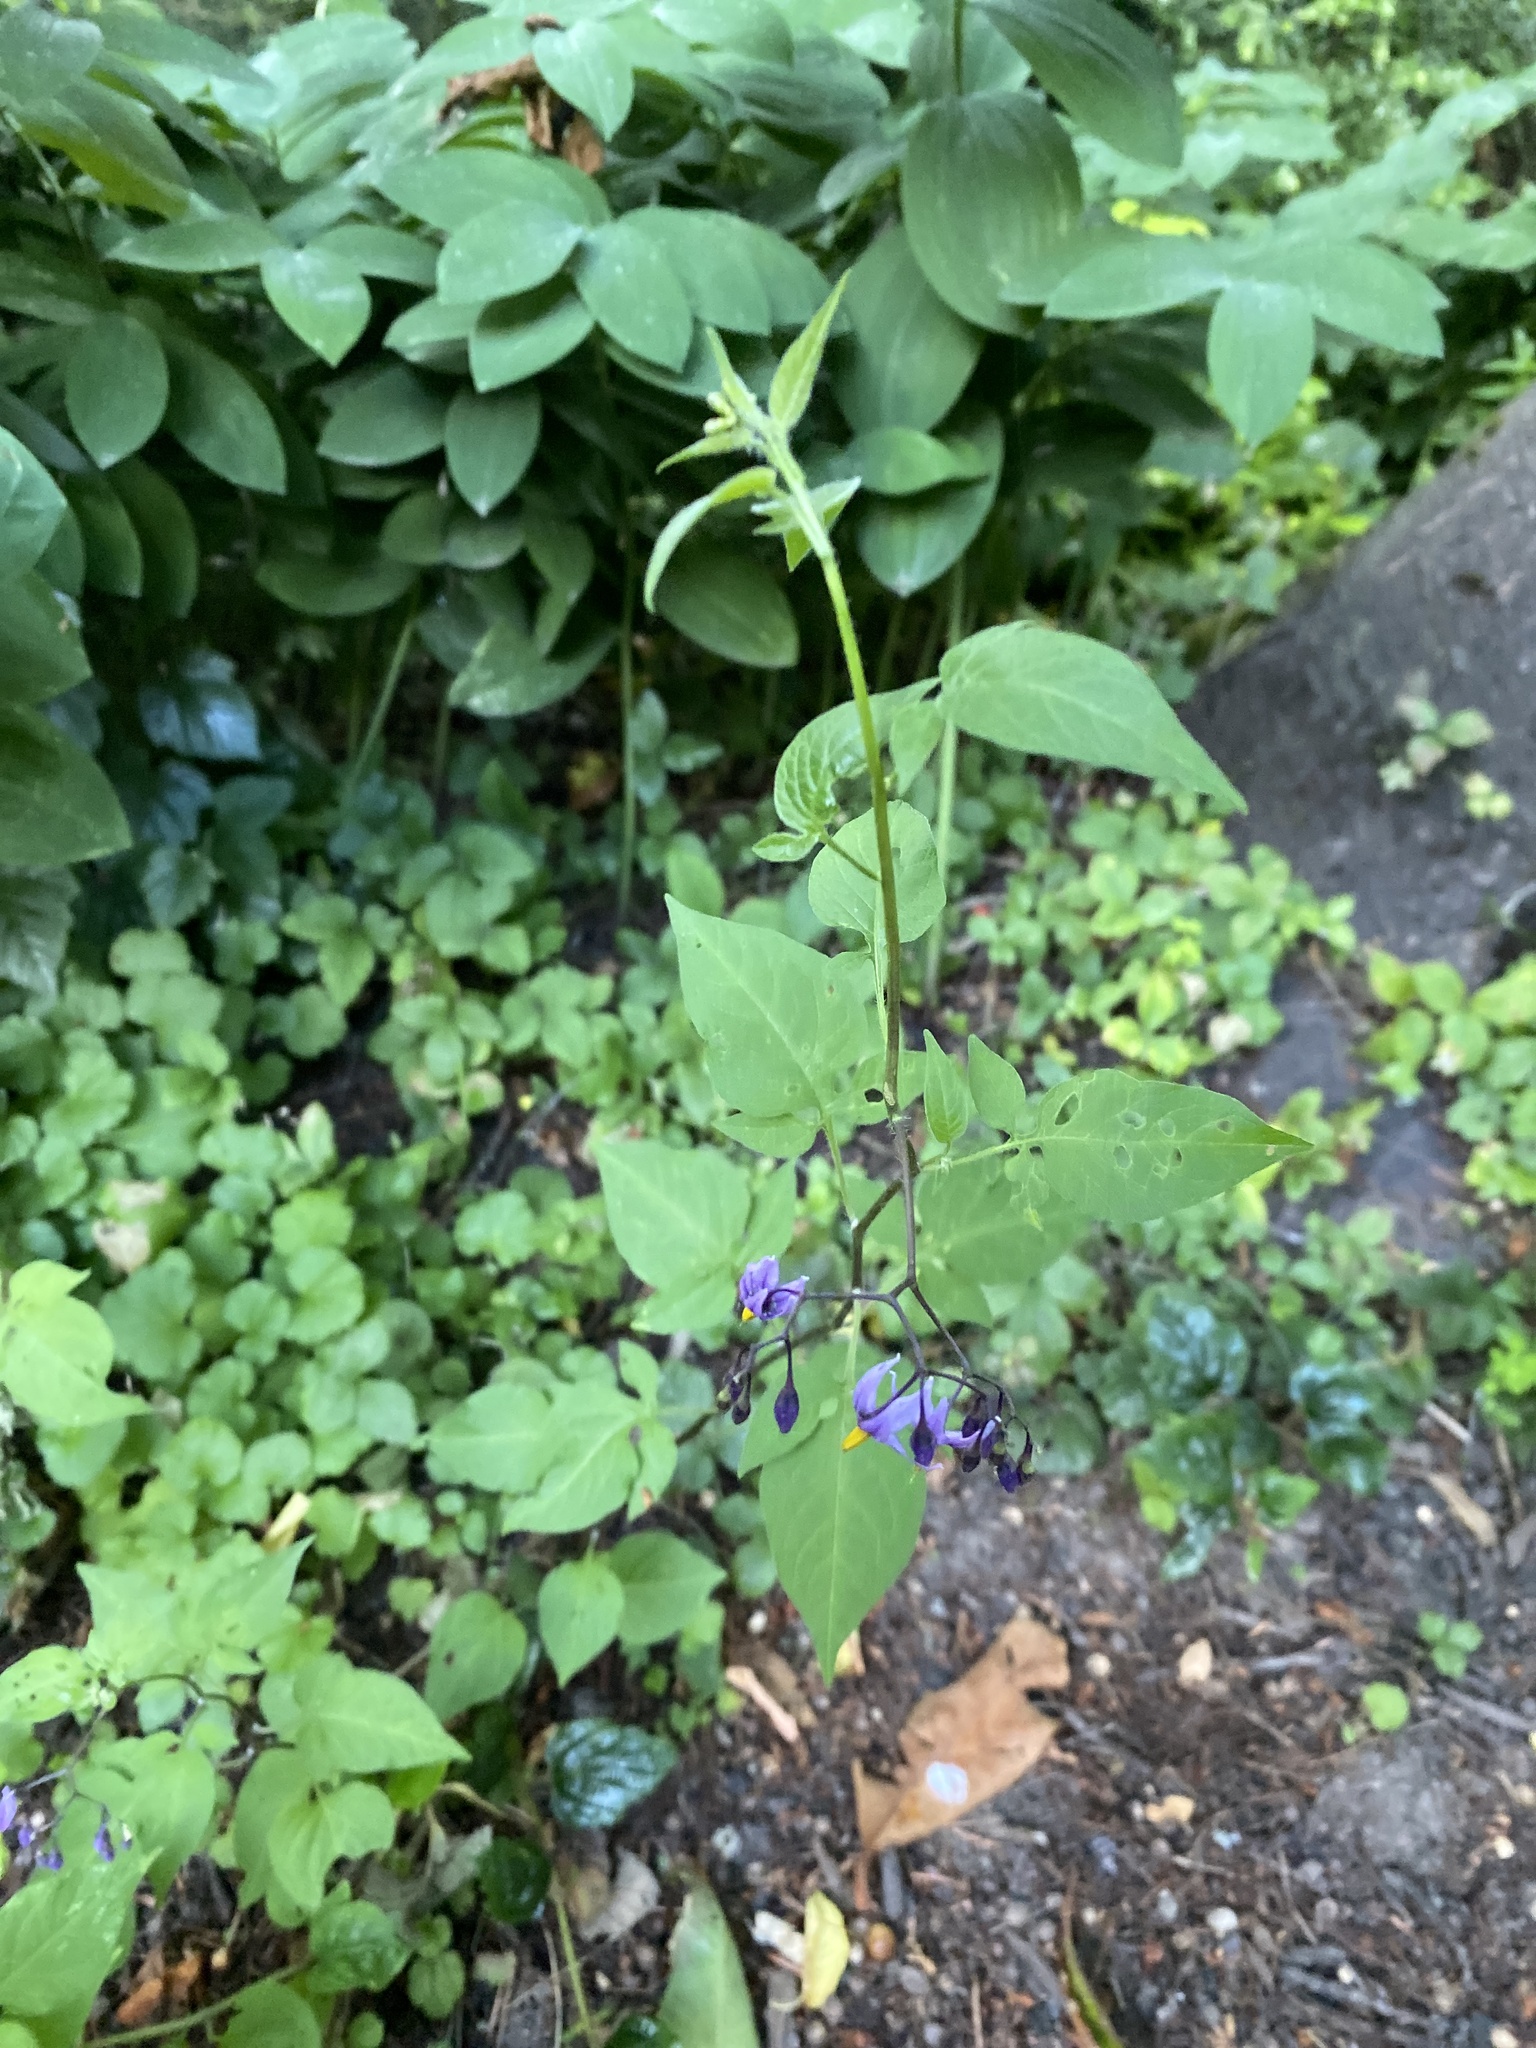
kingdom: Plantae
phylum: Tracheophyta
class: Magnoliopsida
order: Solanales
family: Solanaceae
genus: Solanum
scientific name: Solanum dulcamara
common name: Climbing nightshade
